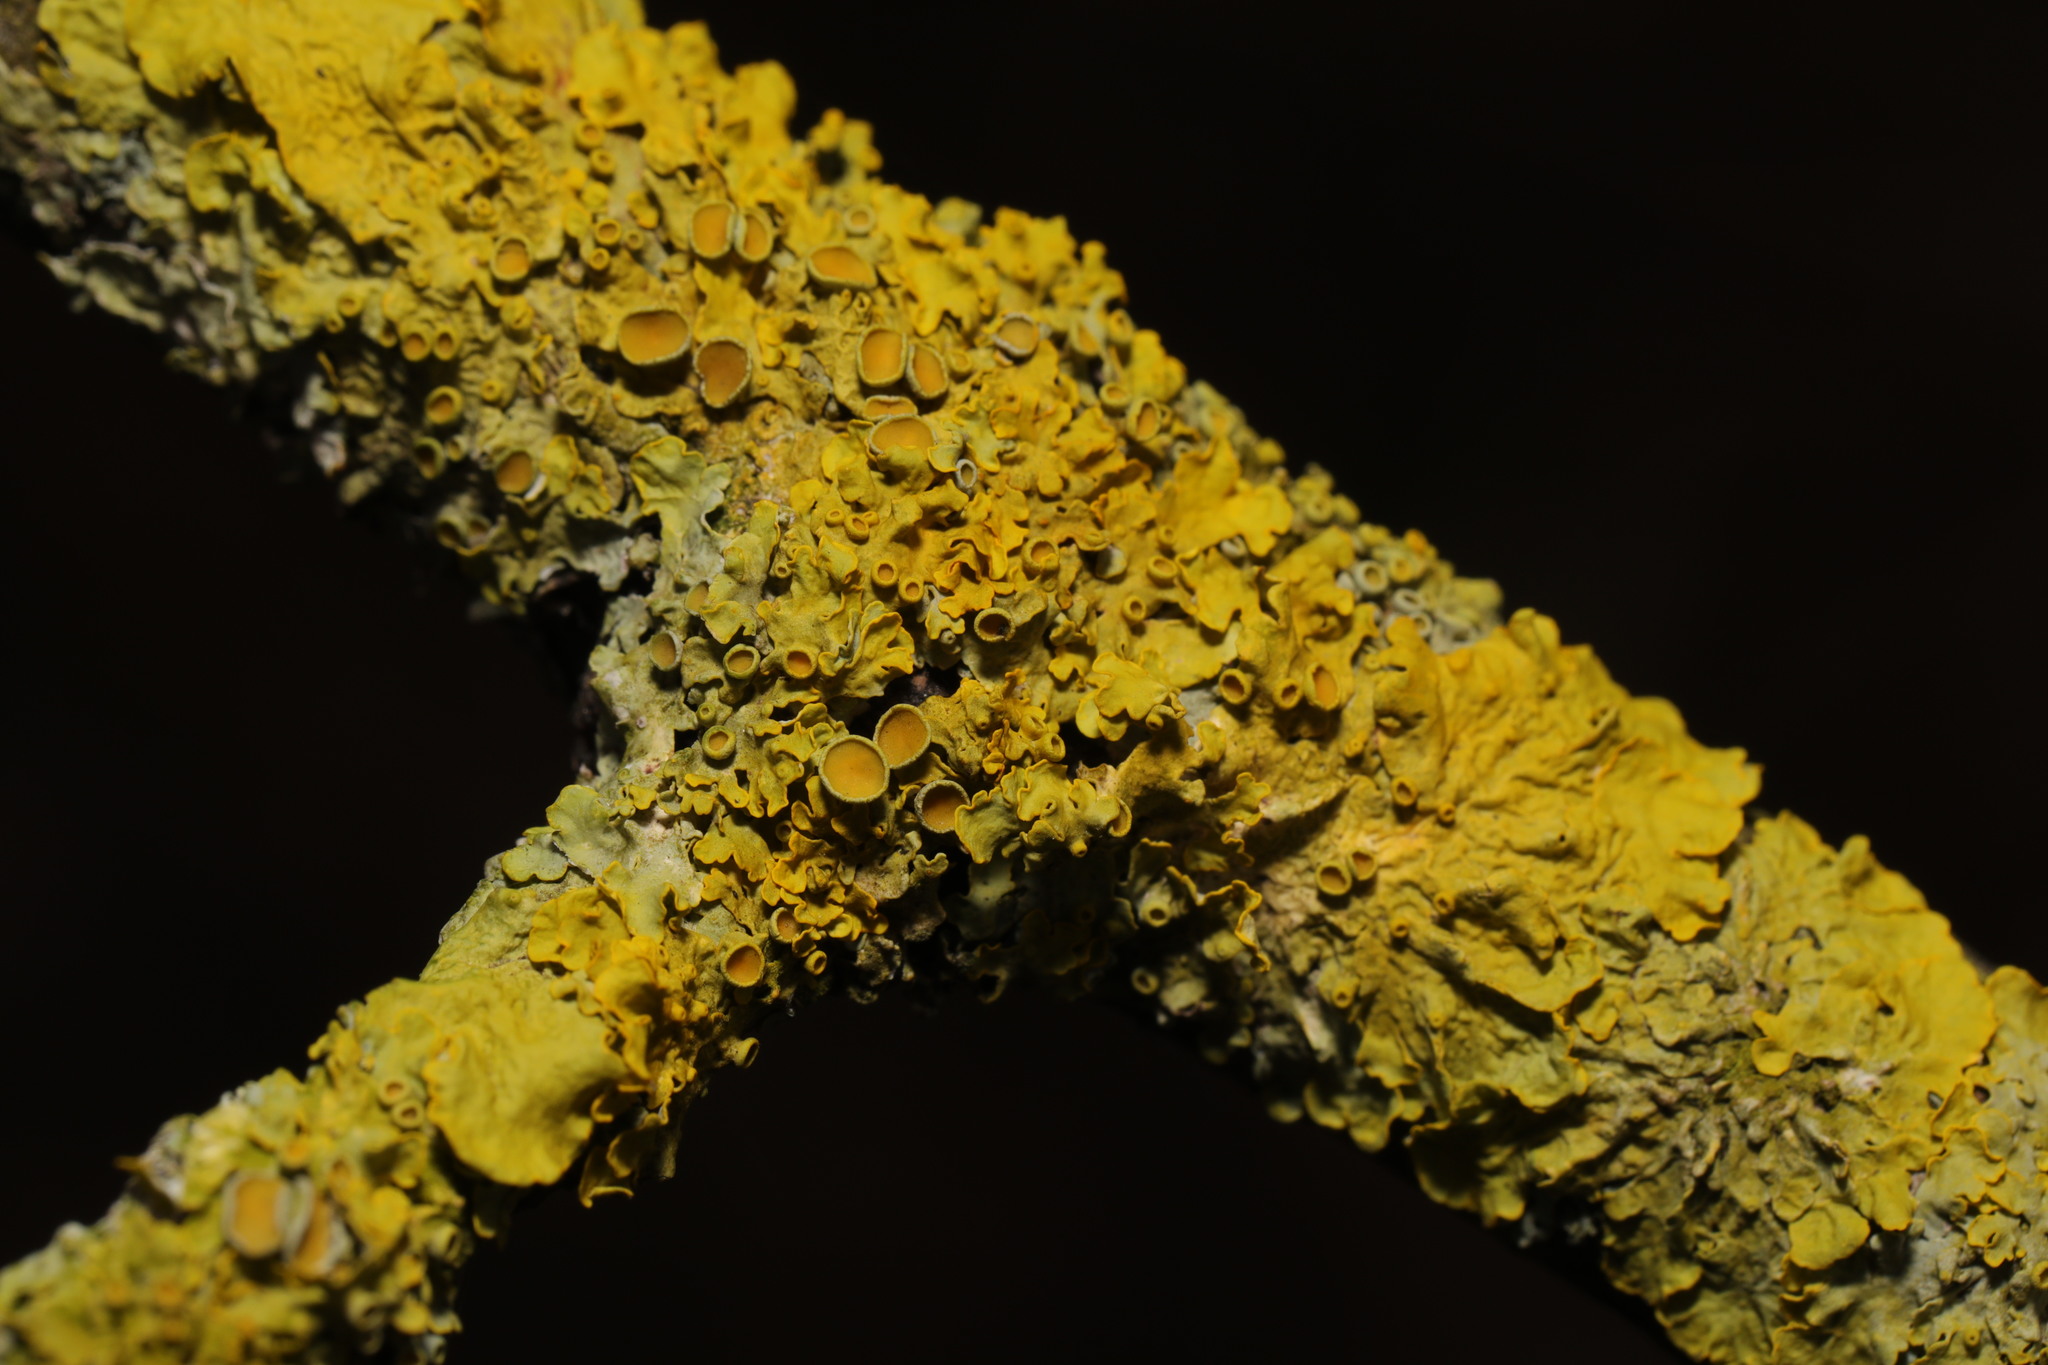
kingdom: Fungi
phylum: Ascomycota
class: Lecanoromycetes
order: Teloschistales
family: Teloschistaceae
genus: Xanthoria
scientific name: Xanthoria parietina
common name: Common orange lichen
